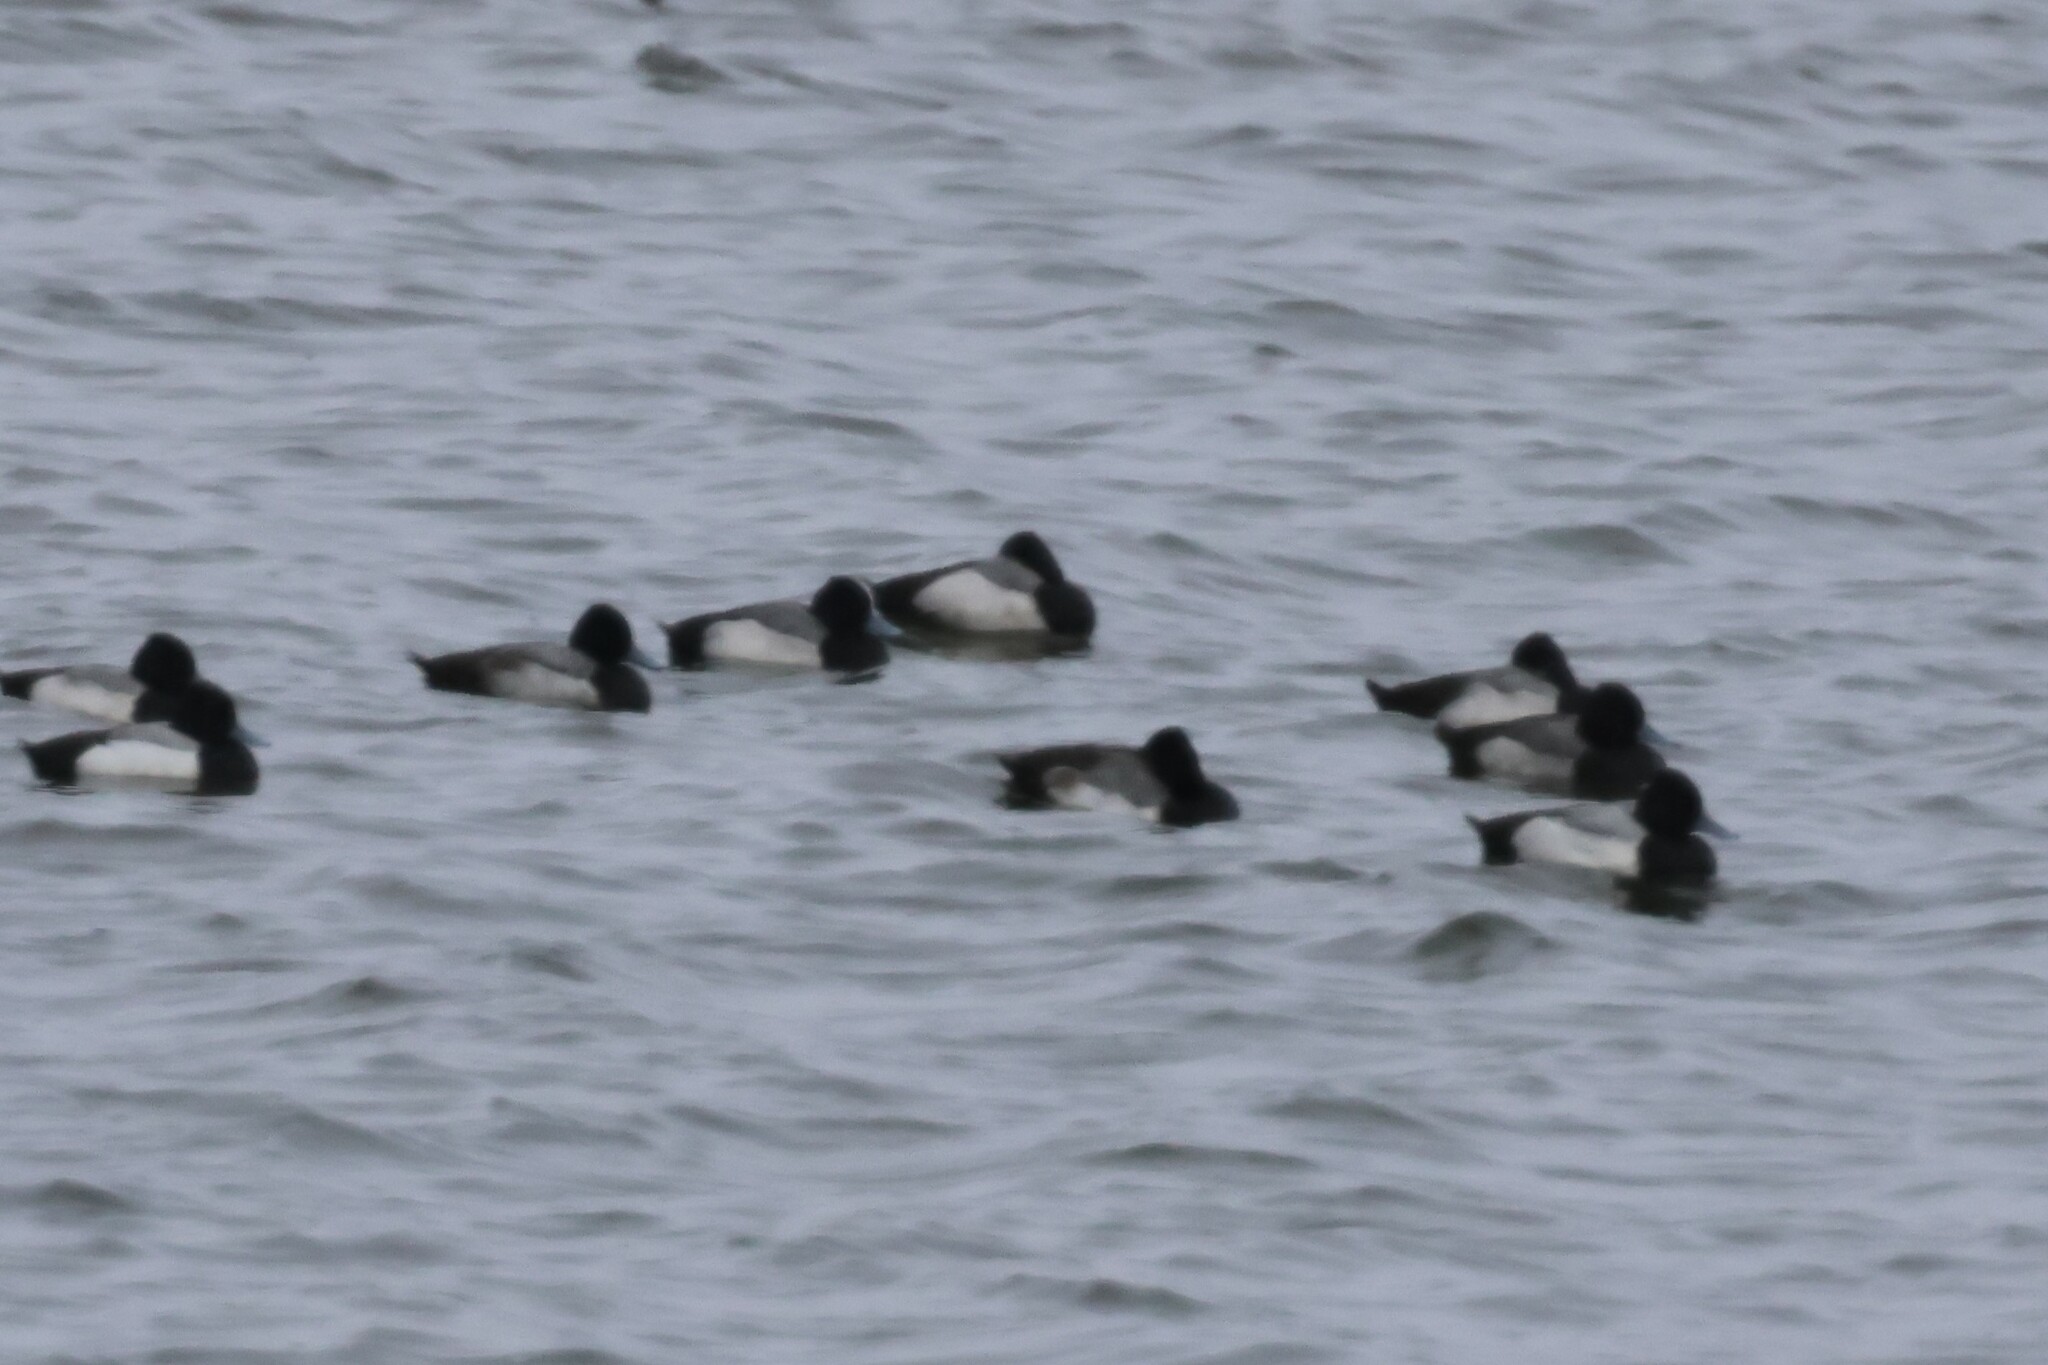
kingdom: Animalia
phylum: Chordata
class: Aves
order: Anseriformes
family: Anatidae
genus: Aythya
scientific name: Aythya affinis
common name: Lesser scaup
